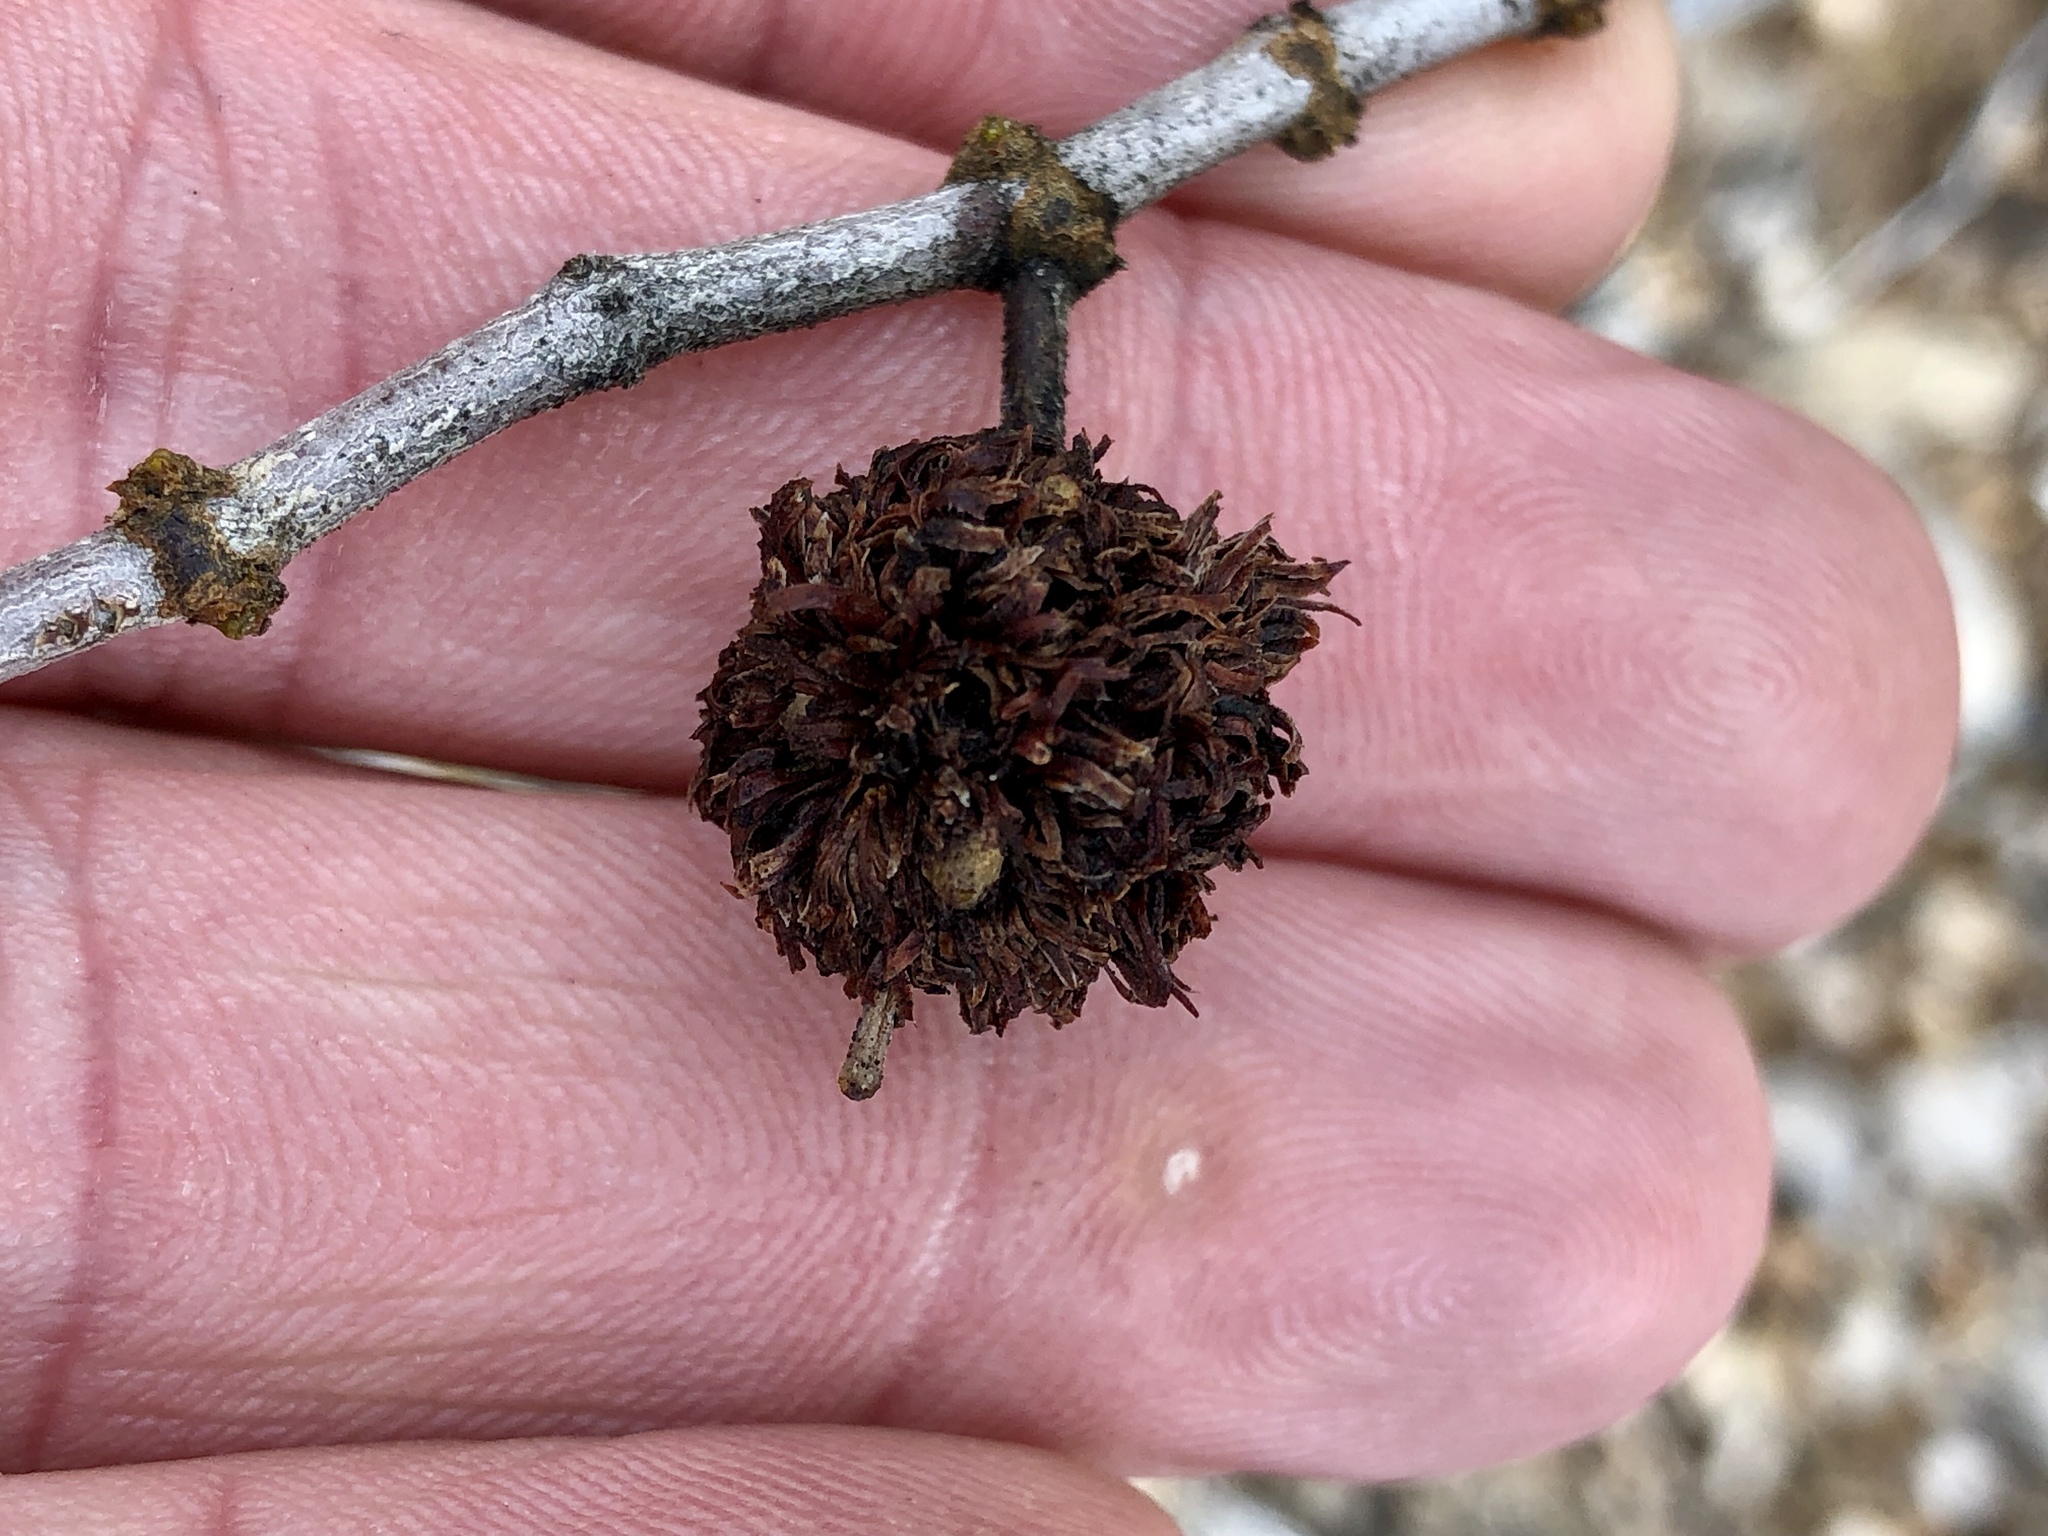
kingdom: Animalia
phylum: Arthropoda
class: Insecta
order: Diptera
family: Cecidomyiidae
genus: Asphondylia
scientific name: Asphondylia auripila
